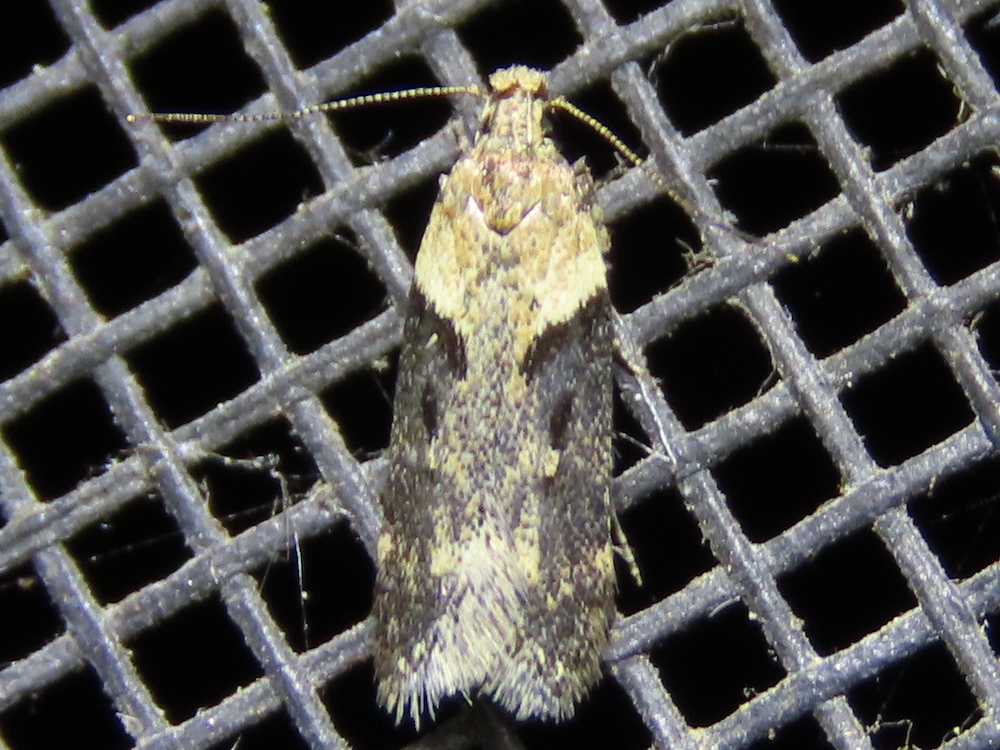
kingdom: Animalia
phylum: Arthropoda
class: Insecta
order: Lepidoptera
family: Gelechiidae
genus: Chionodes
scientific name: Chionodes mediofuscella
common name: Black-smudged chionodes moth
